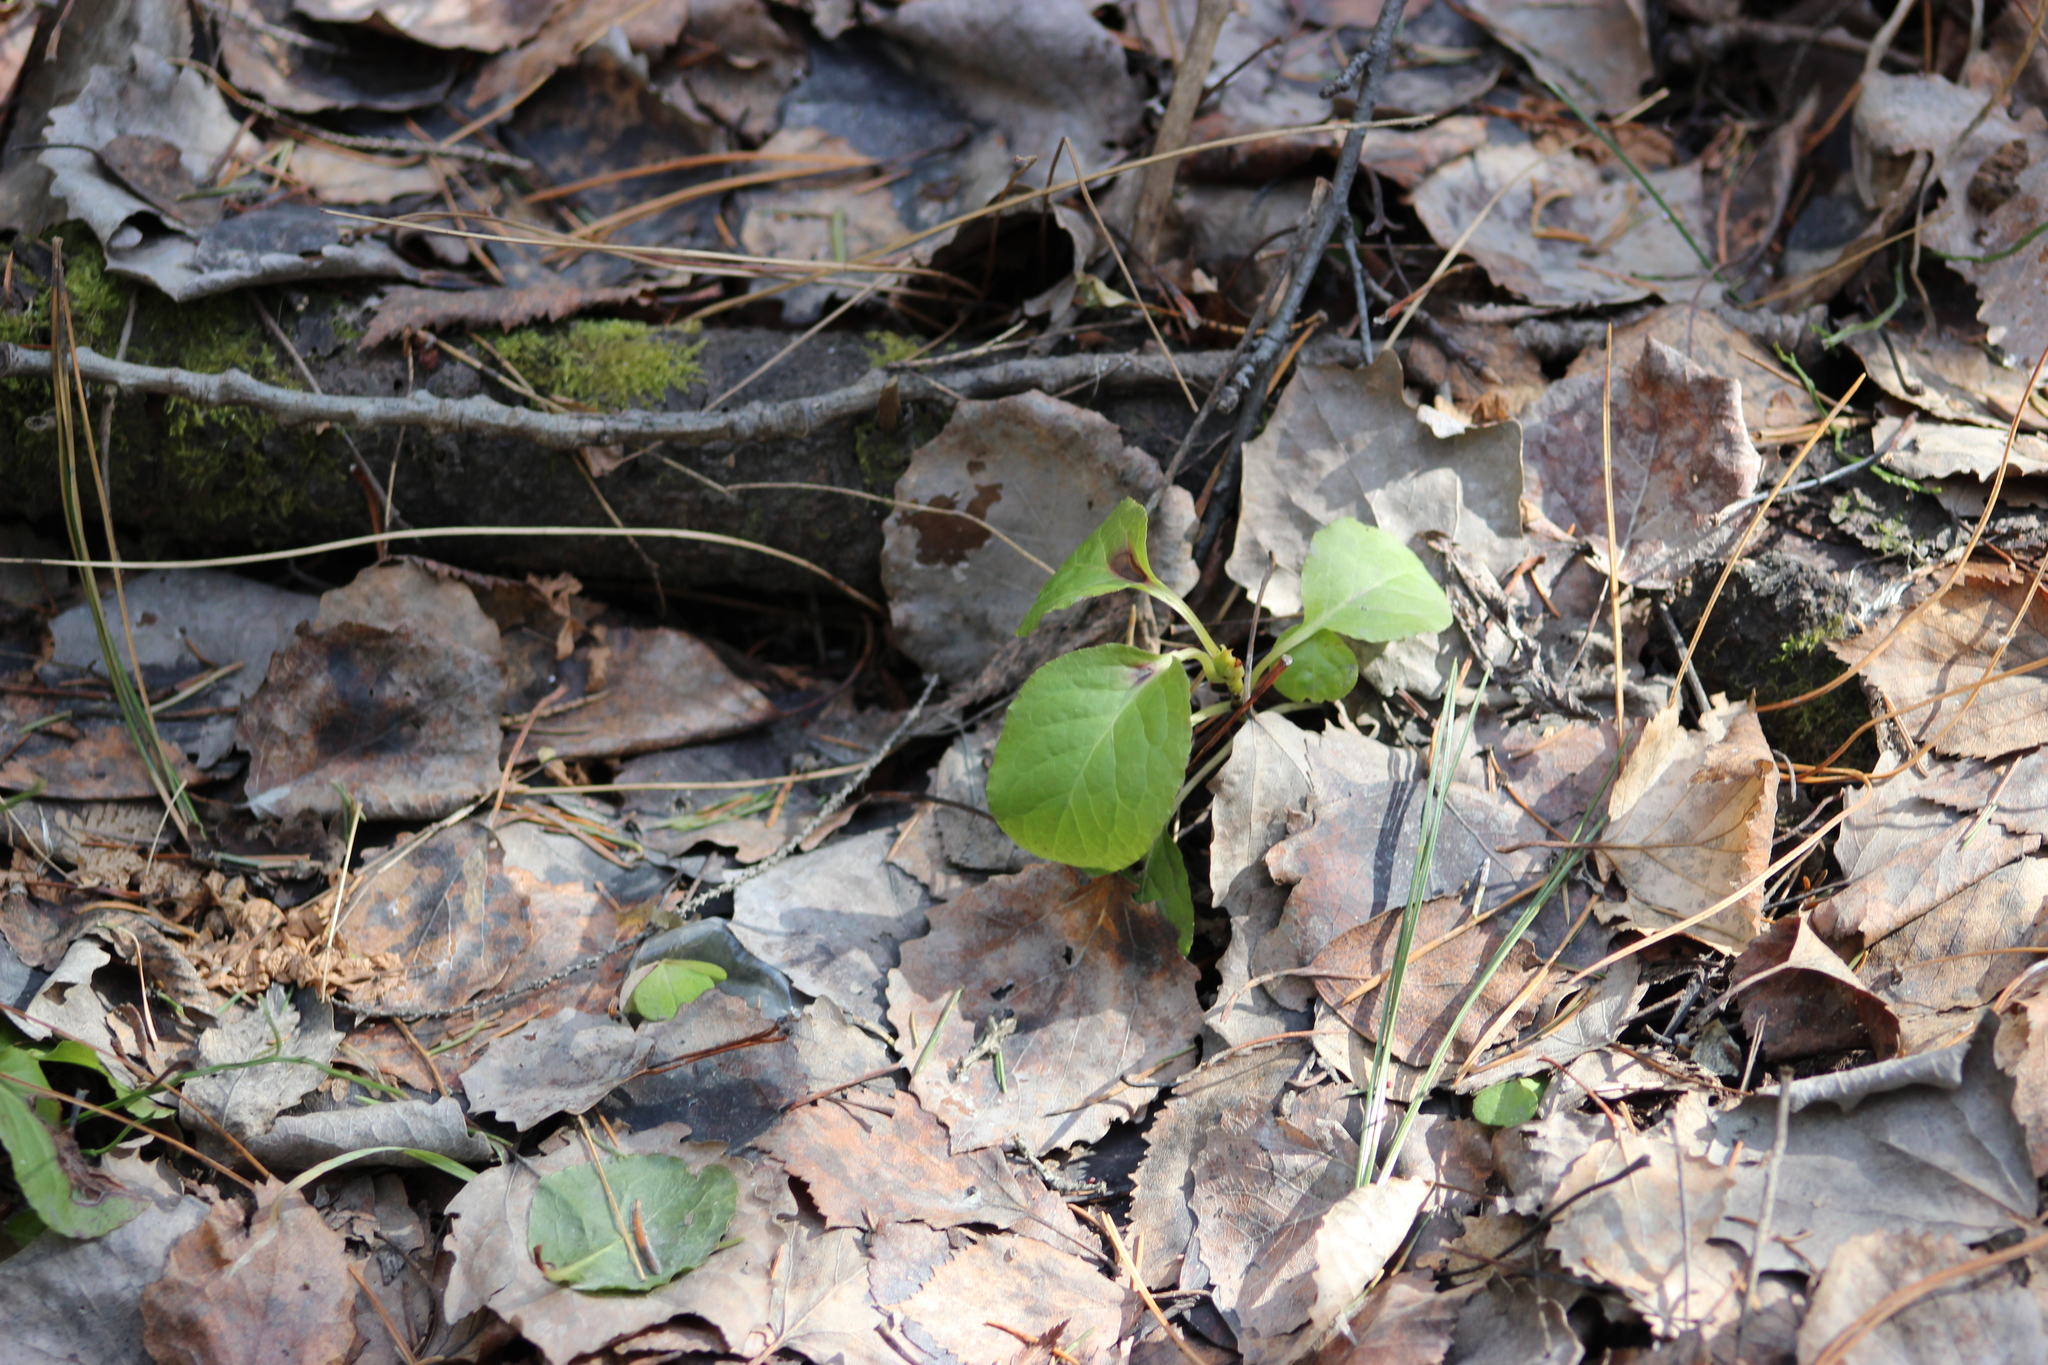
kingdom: Plantae
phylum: Tracheophyta
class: Magnoliopsida
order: Ericales
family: Ericaceae
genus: Orthilia
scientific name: Orthilia secunda
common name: One-sided orthilia
